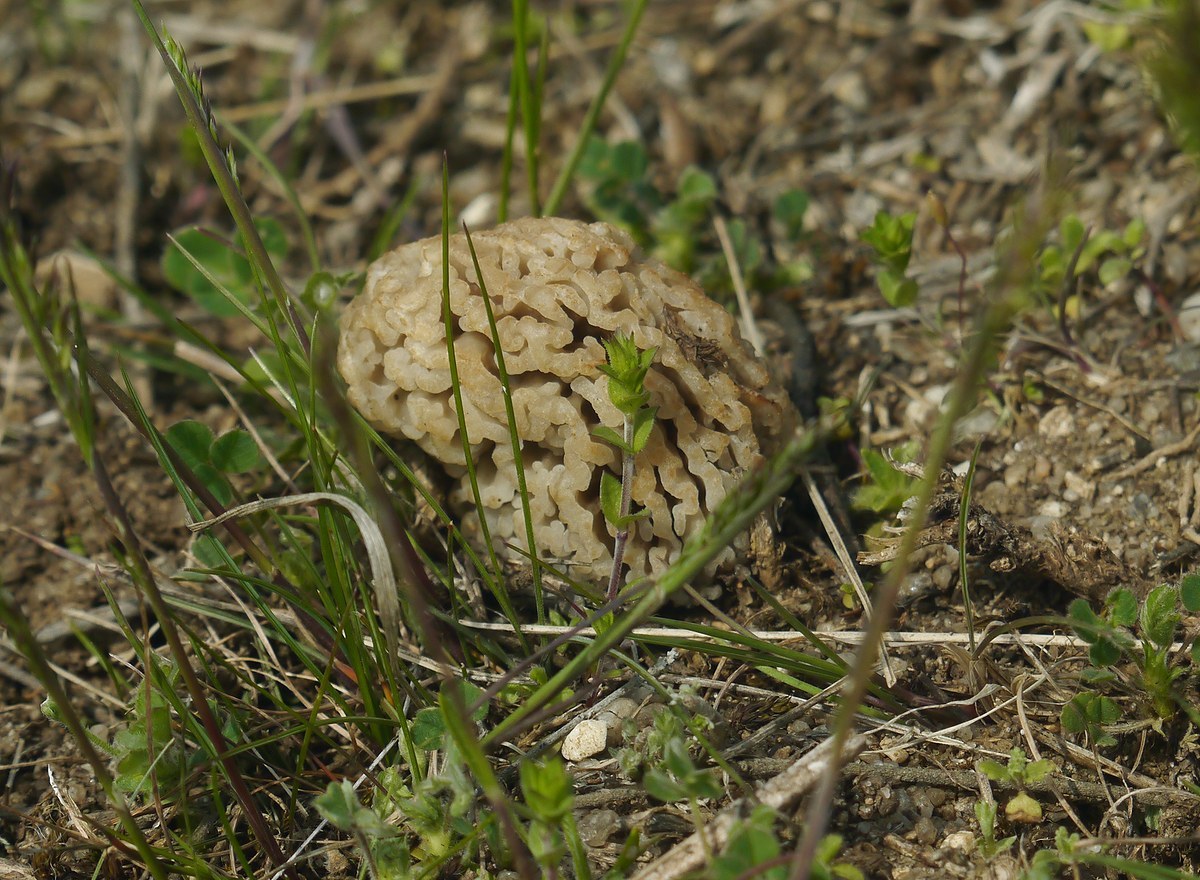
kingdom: Fungi
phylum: Ascomycota
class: Pezizomycetes
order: Pezizales
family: Morchellaceae
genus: Morchella
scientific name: Morchella steppicola
